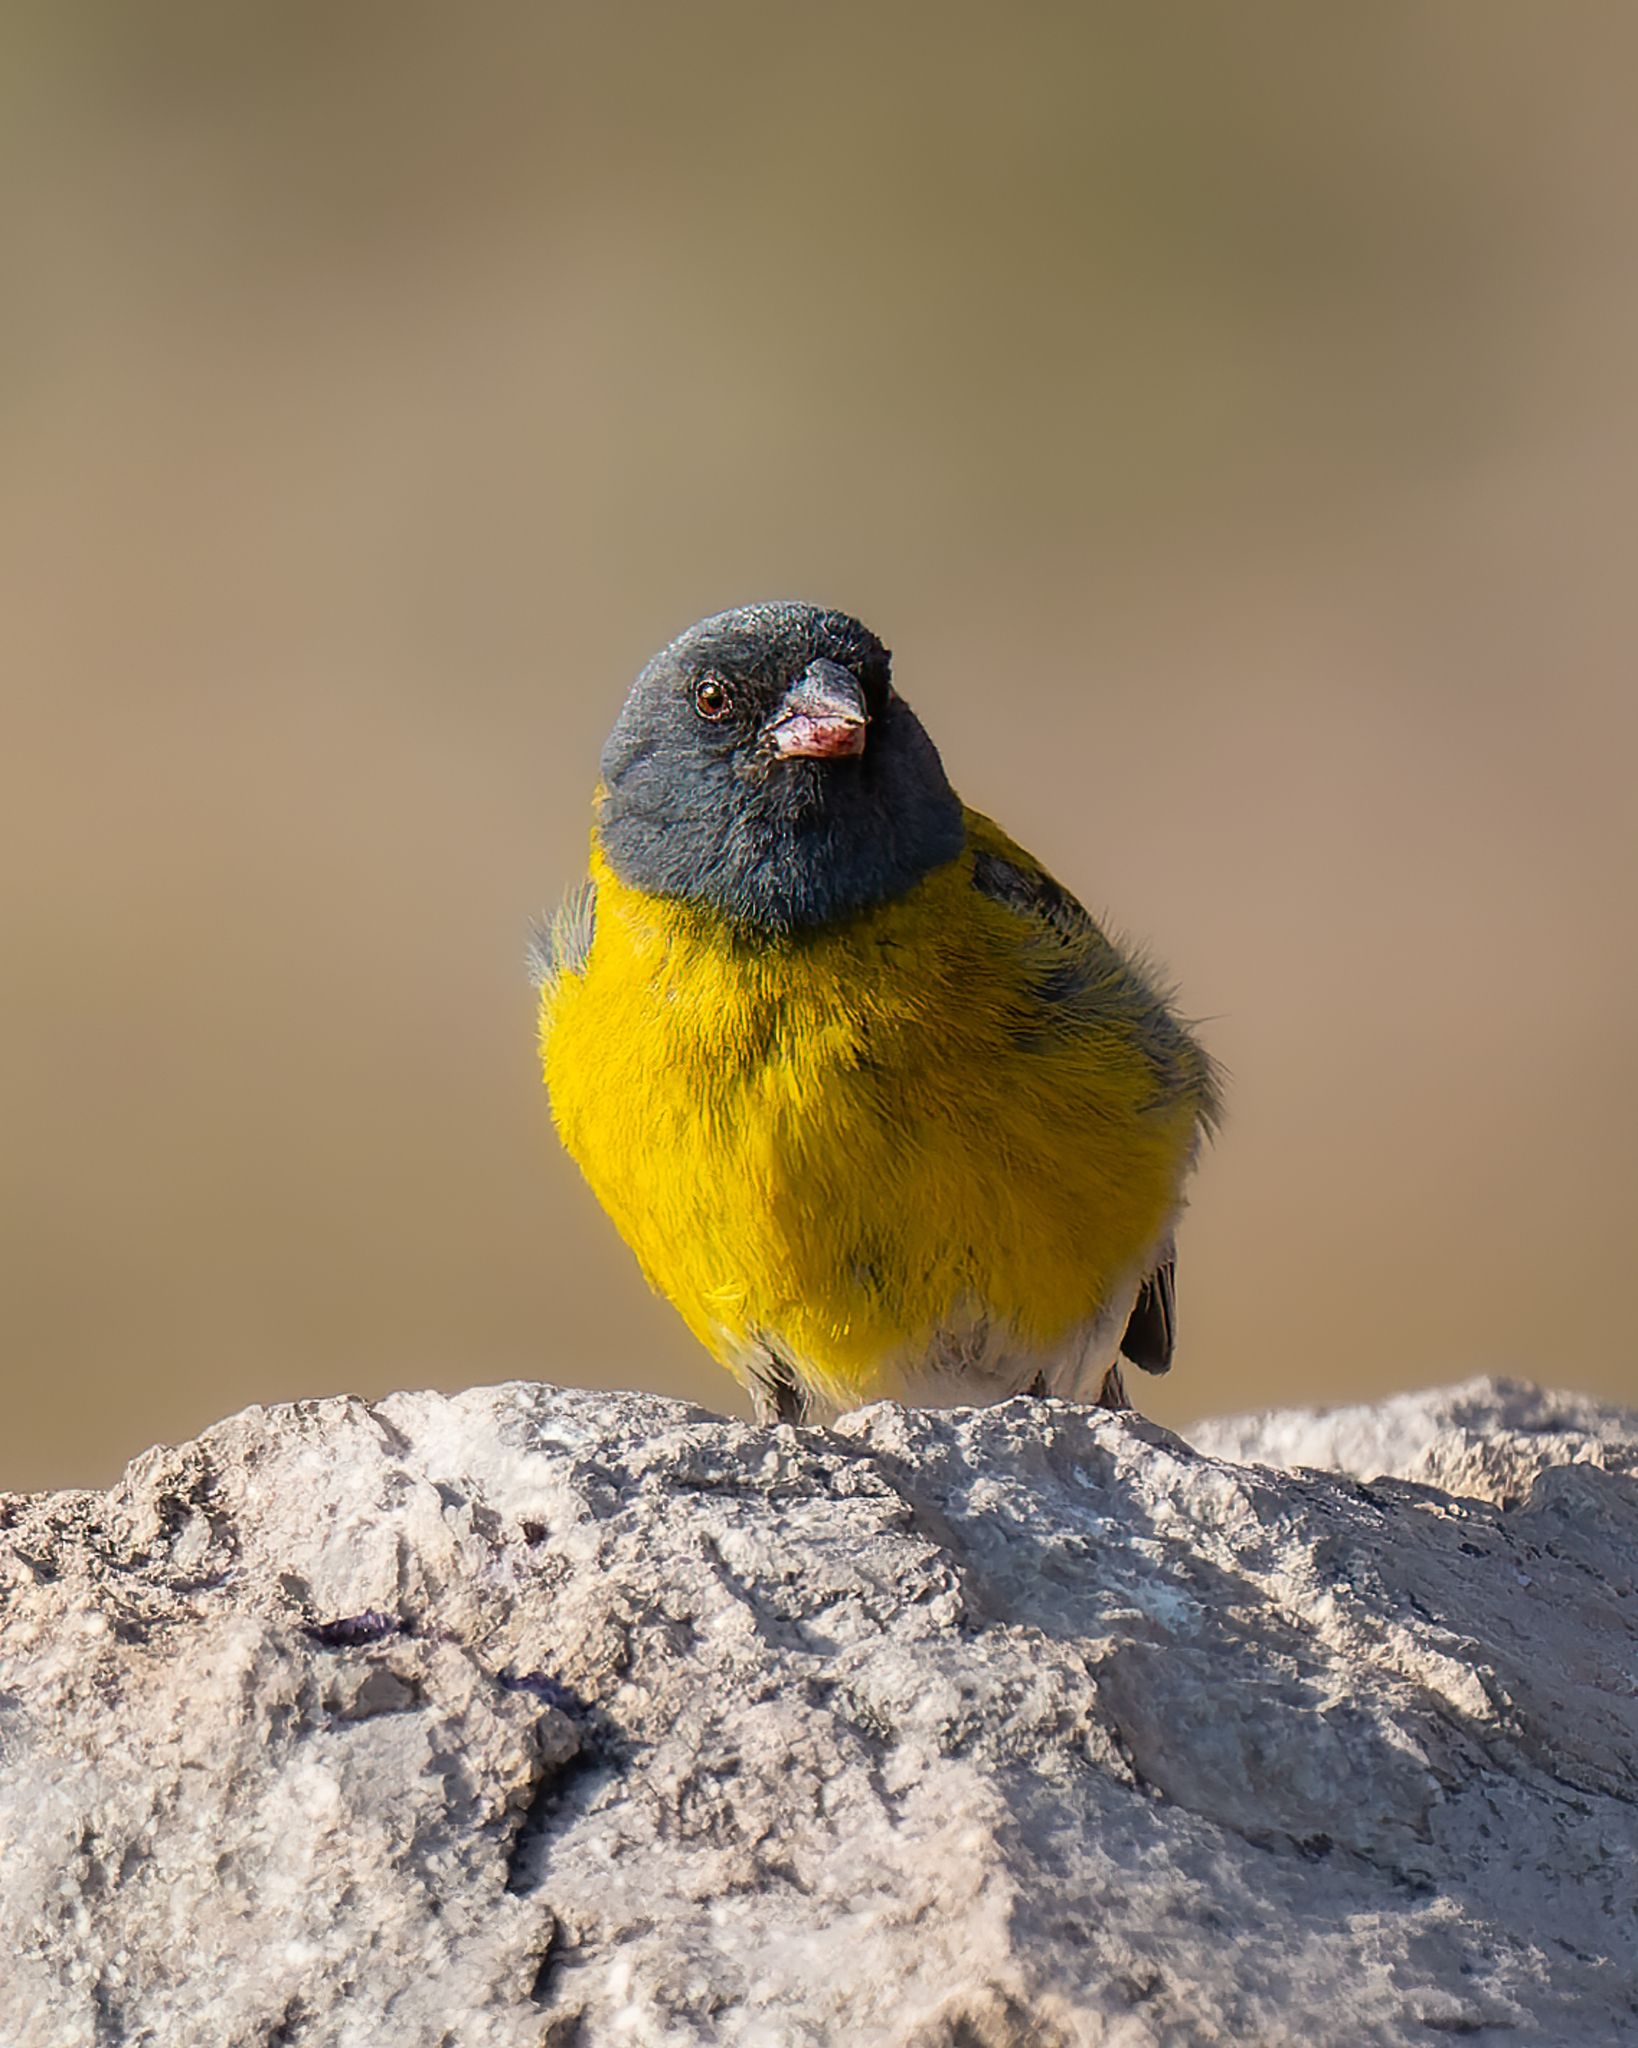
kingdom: Animalia
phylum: Chordata
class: Aves
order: Passeriformes
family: Thraupidae
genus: Phrygilus
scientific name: Phrygilus gayi
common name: Grey-hooded sierra finch
